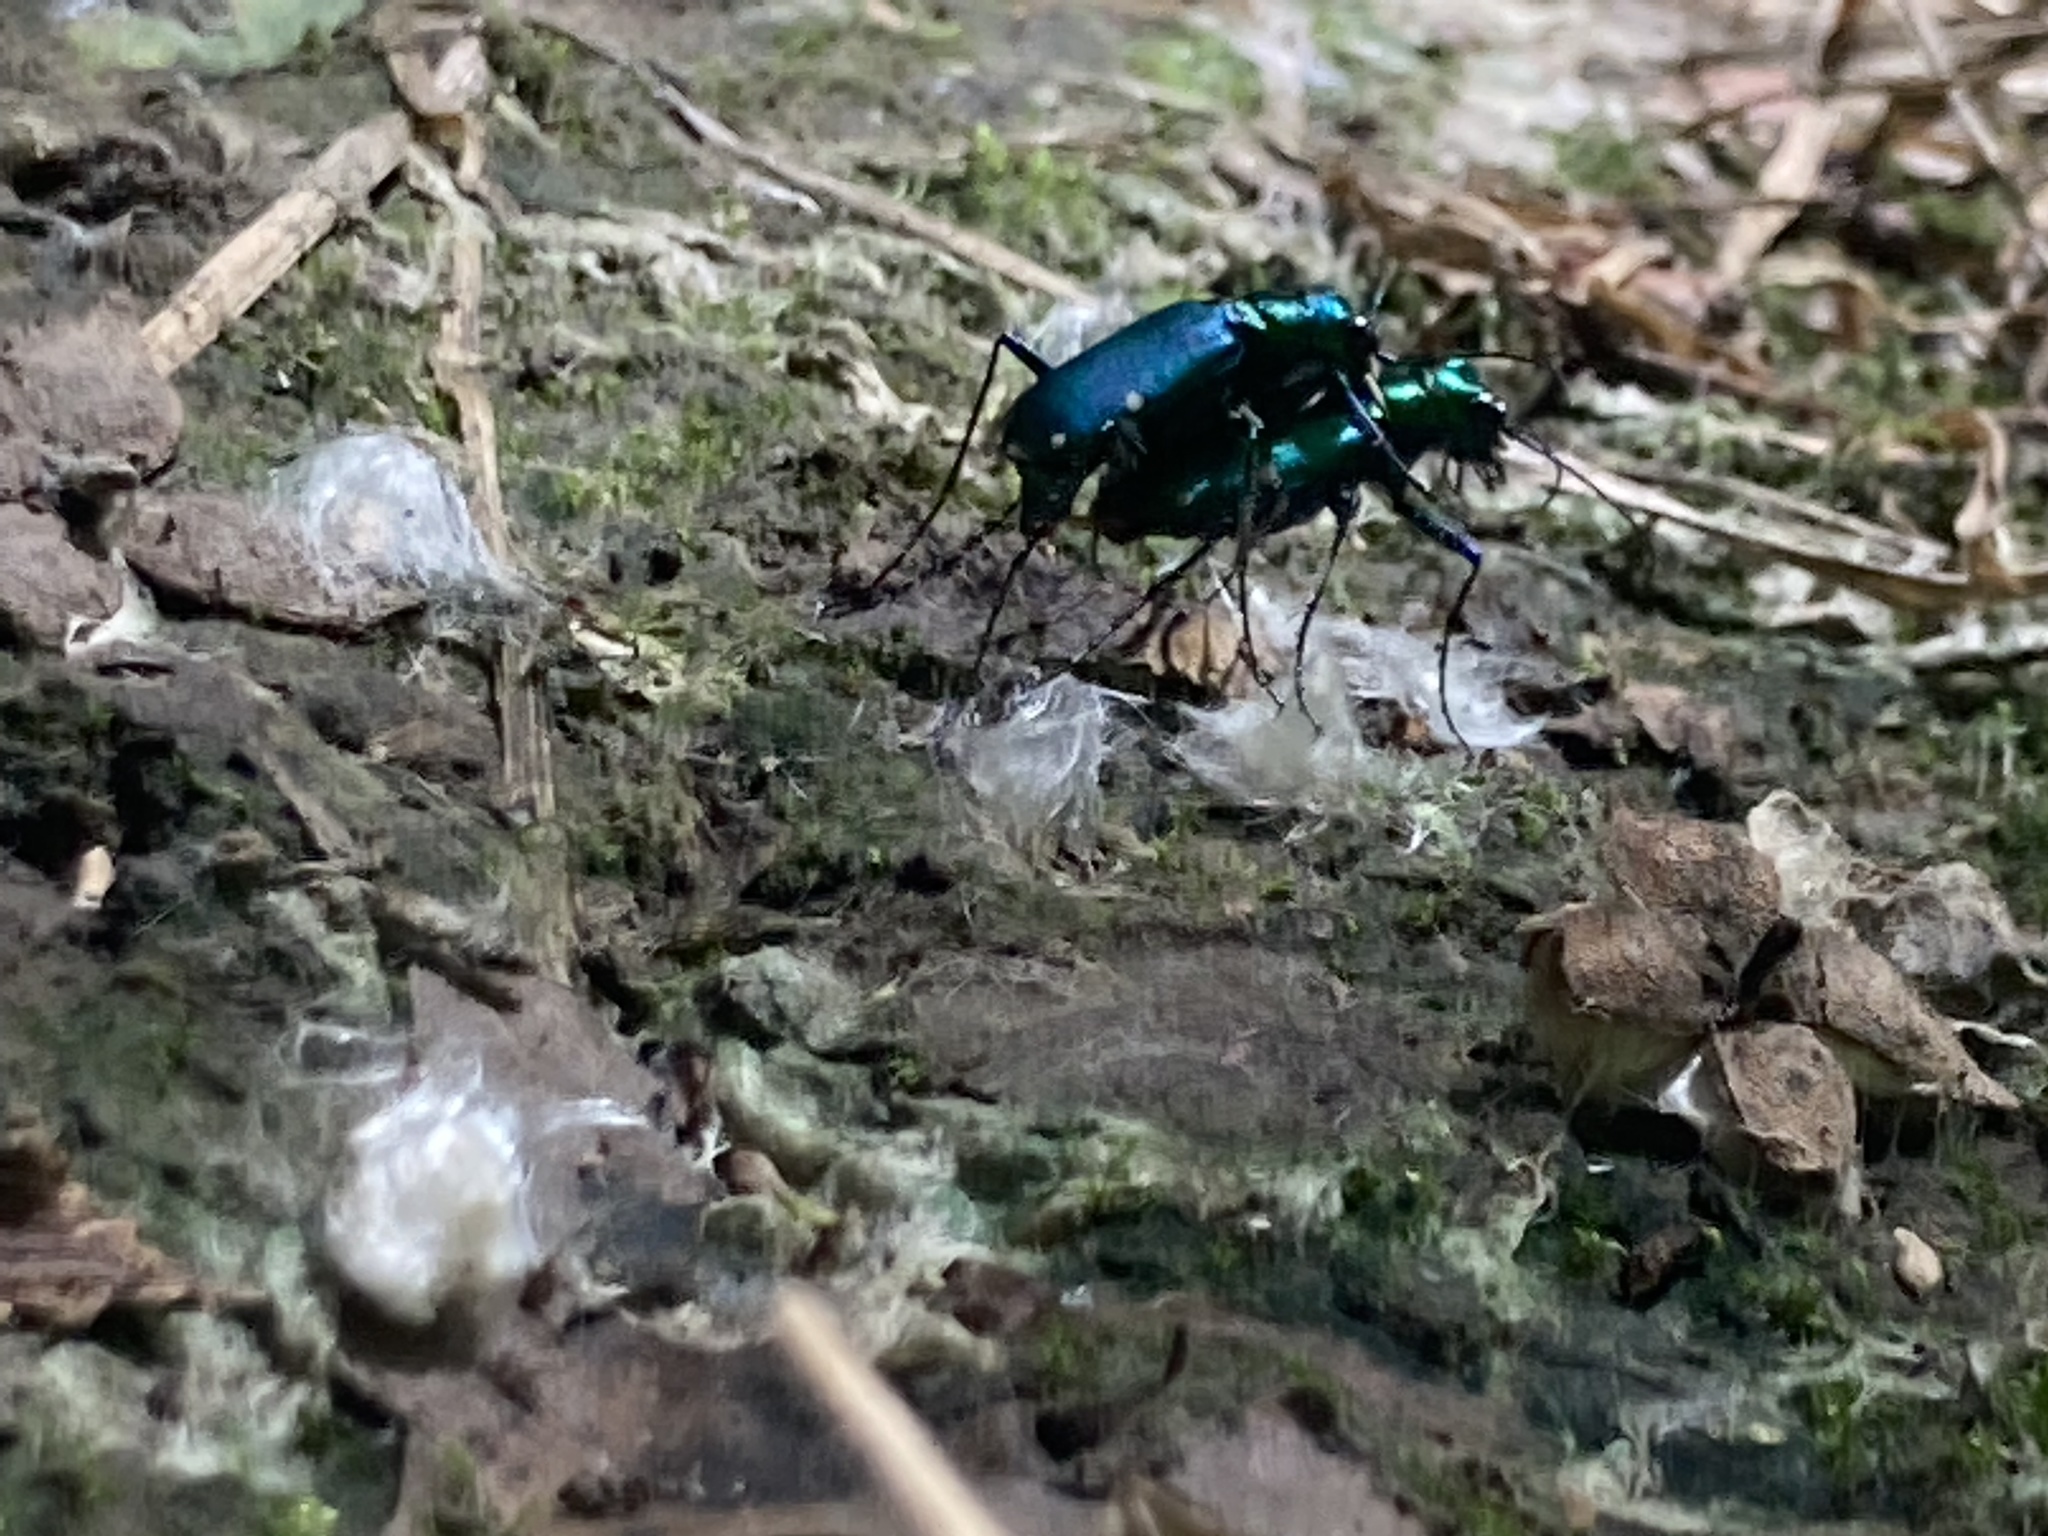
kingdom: Animalia
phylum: Arthropoda
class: Insecta
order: Coleoptera
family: Carabidae
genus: Cicindela
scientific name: Cicindela sexguttata
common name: Six-spotted tiger beetle
